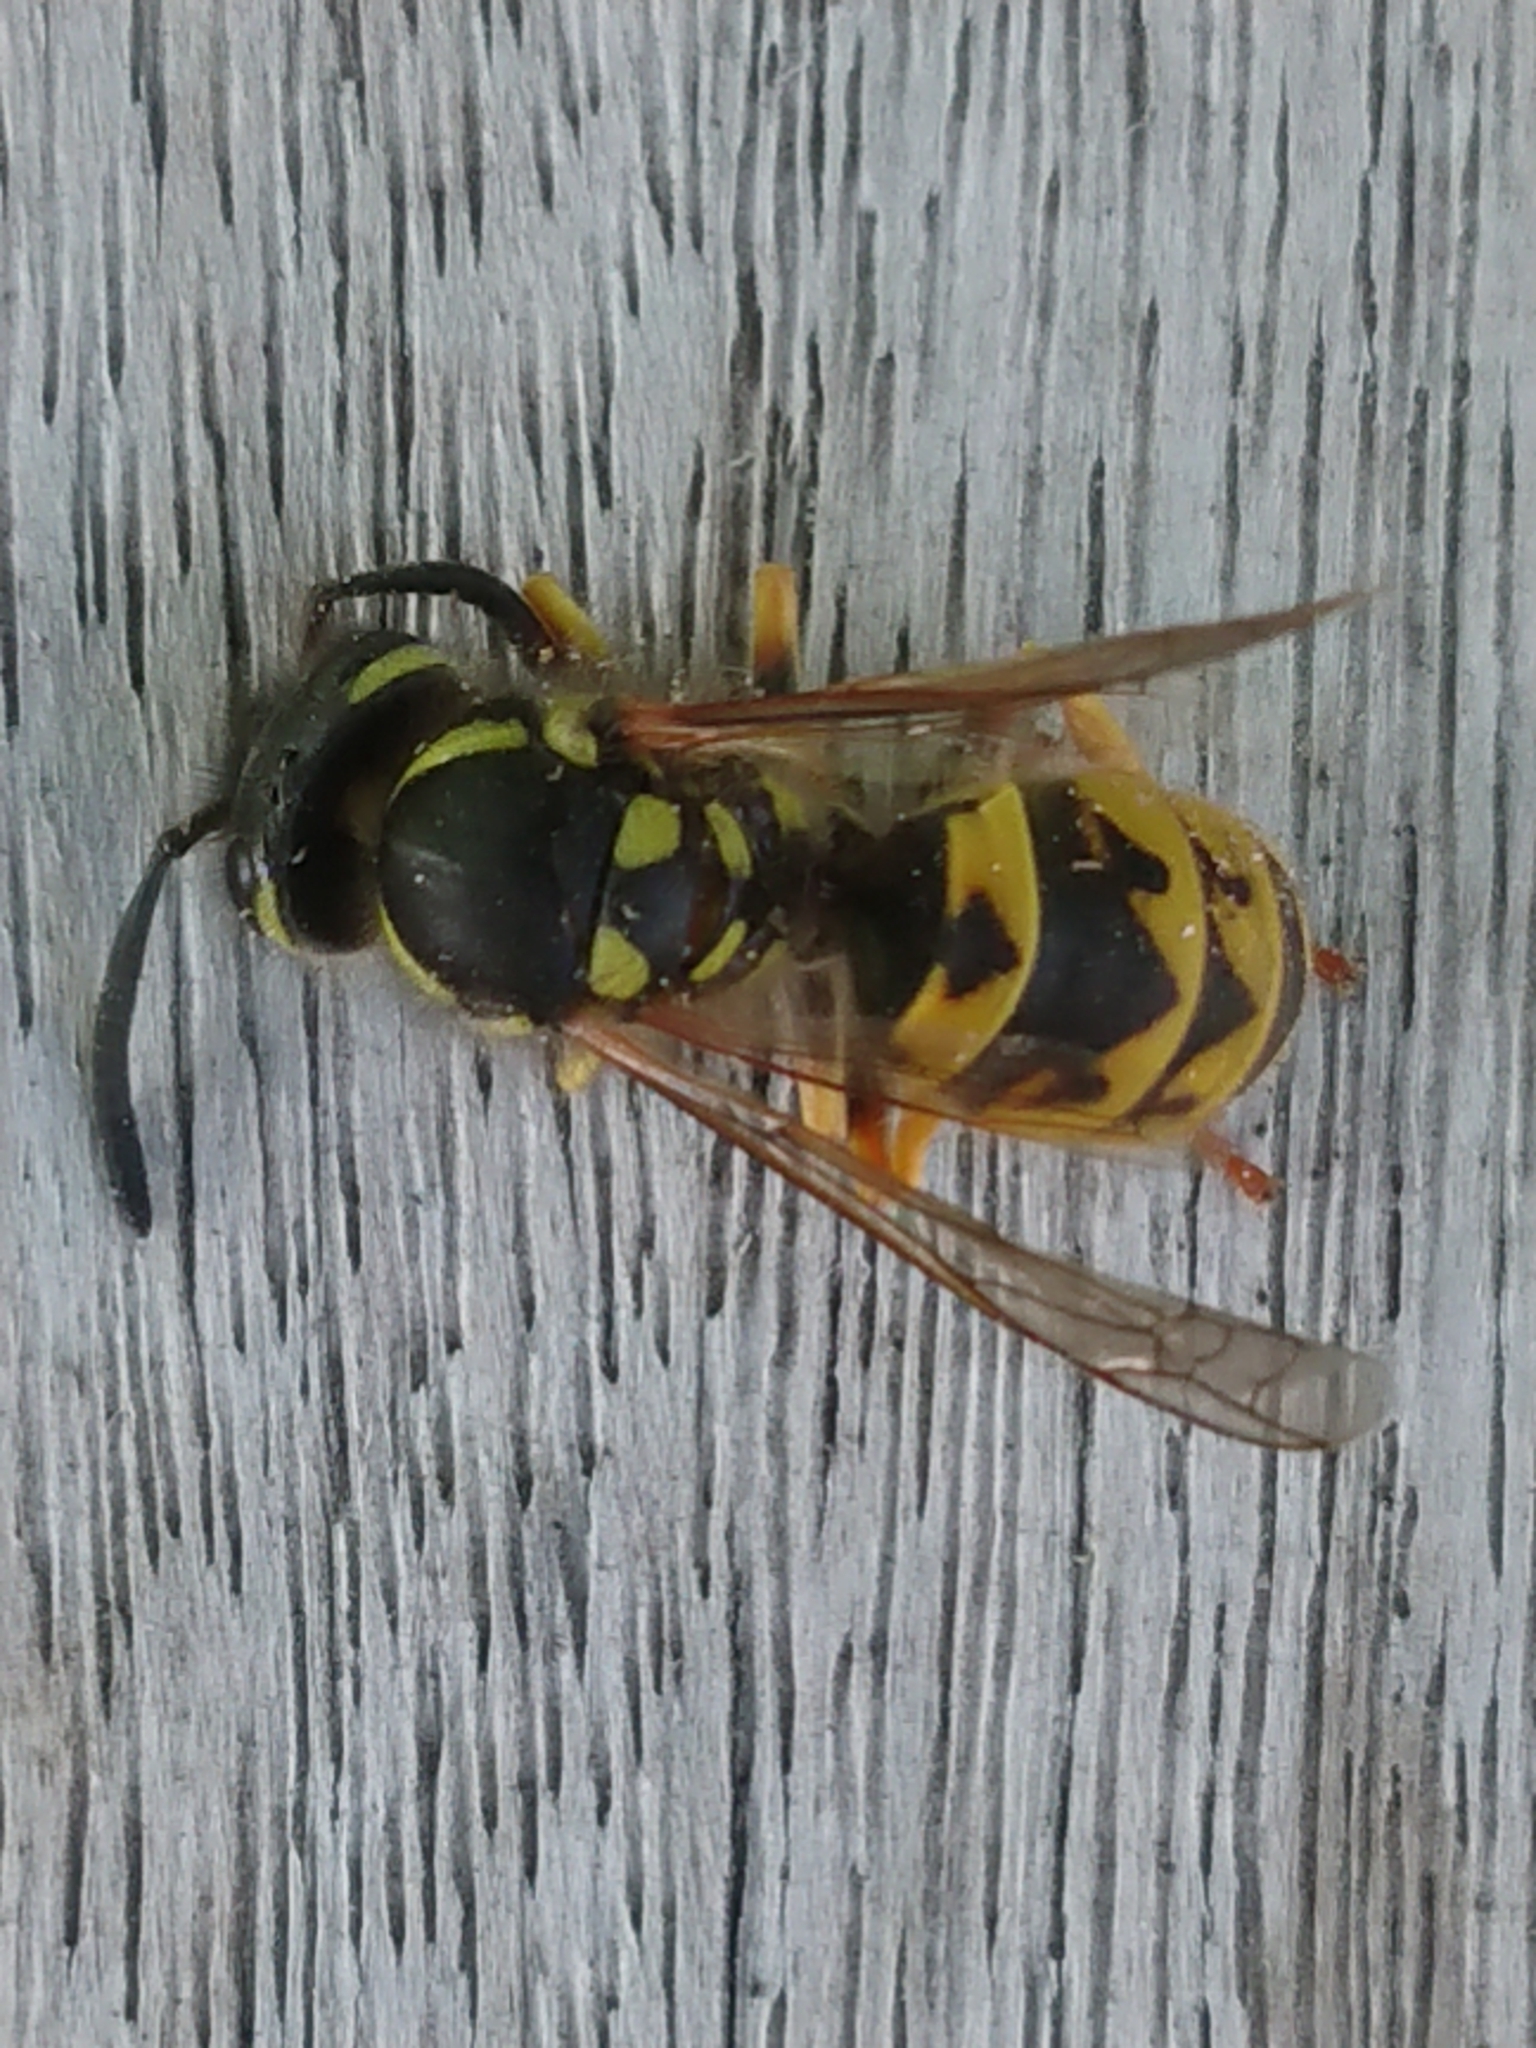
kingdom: Animalia
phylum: Arthropoda
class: Insecta
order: Hymenoptera
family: Vespidae
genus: Vespula
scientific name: Vespula germanica
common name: German wasp
